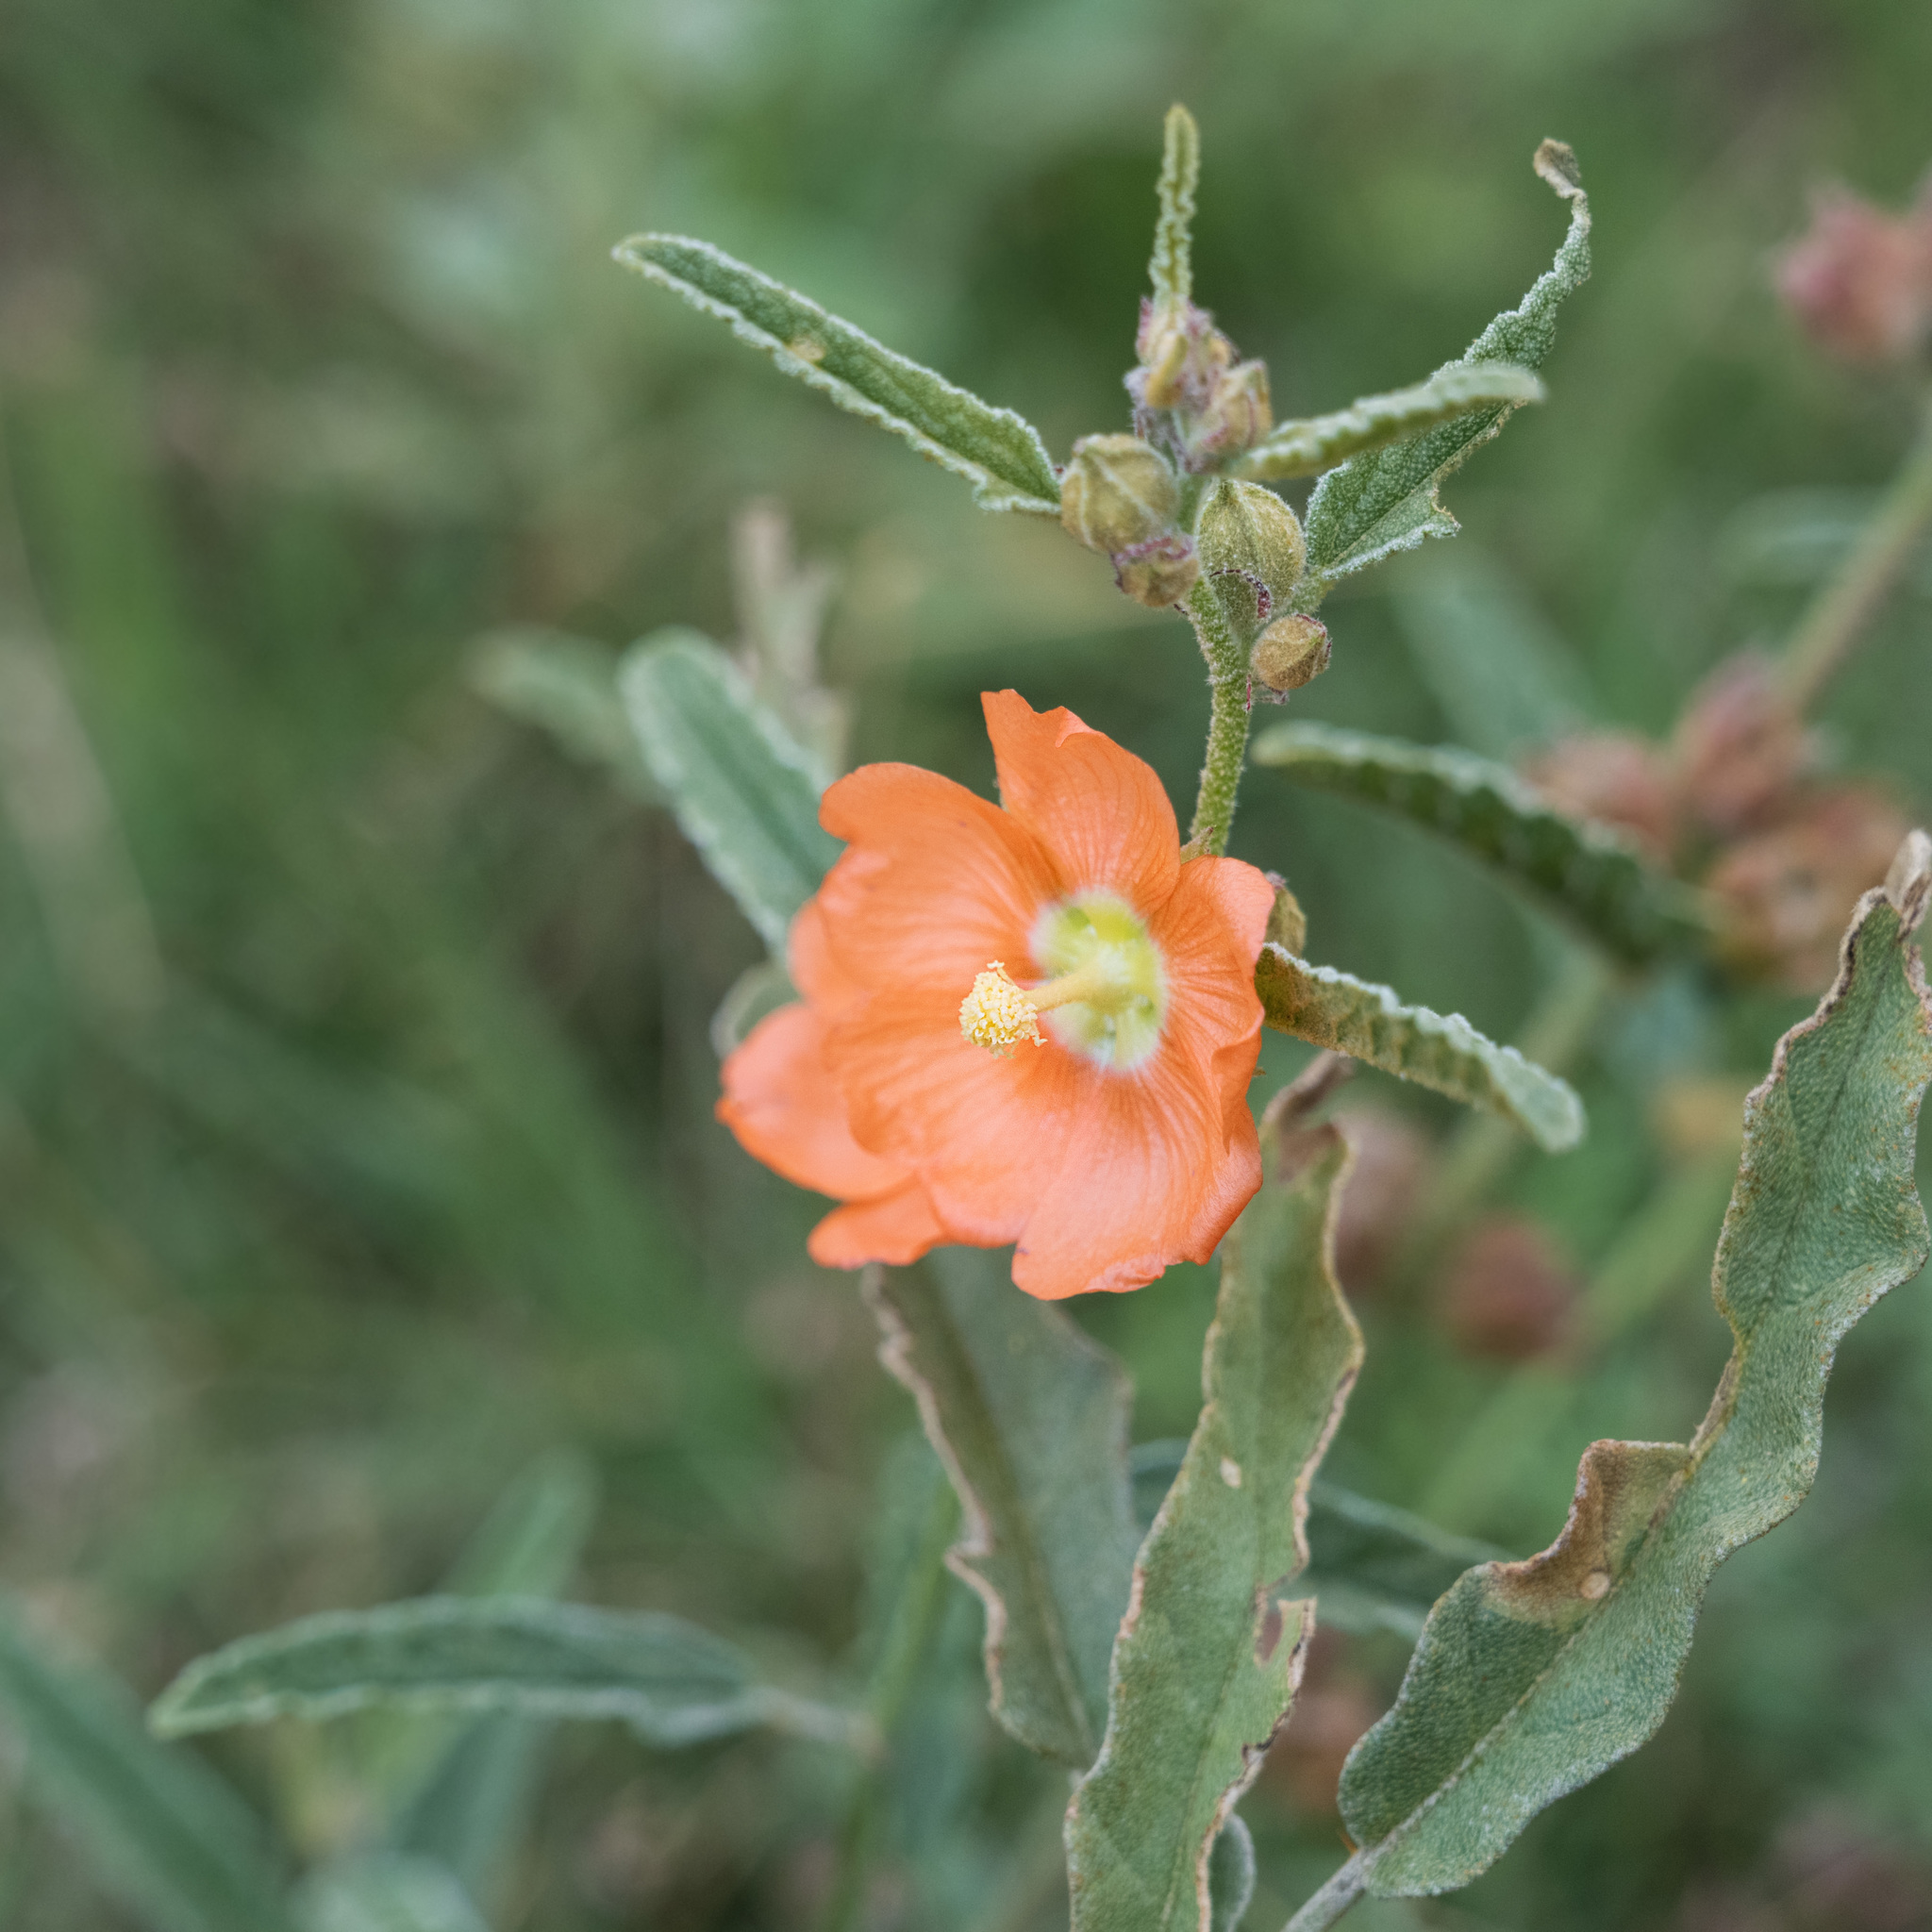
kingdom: Plantae
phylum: Tracheophyta
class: Magnoliopsida
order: Malvales
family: Malvaceae
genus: Sphaeralcea
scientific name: Sphaeralcea angustifolia
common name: Copper globe-mallow
